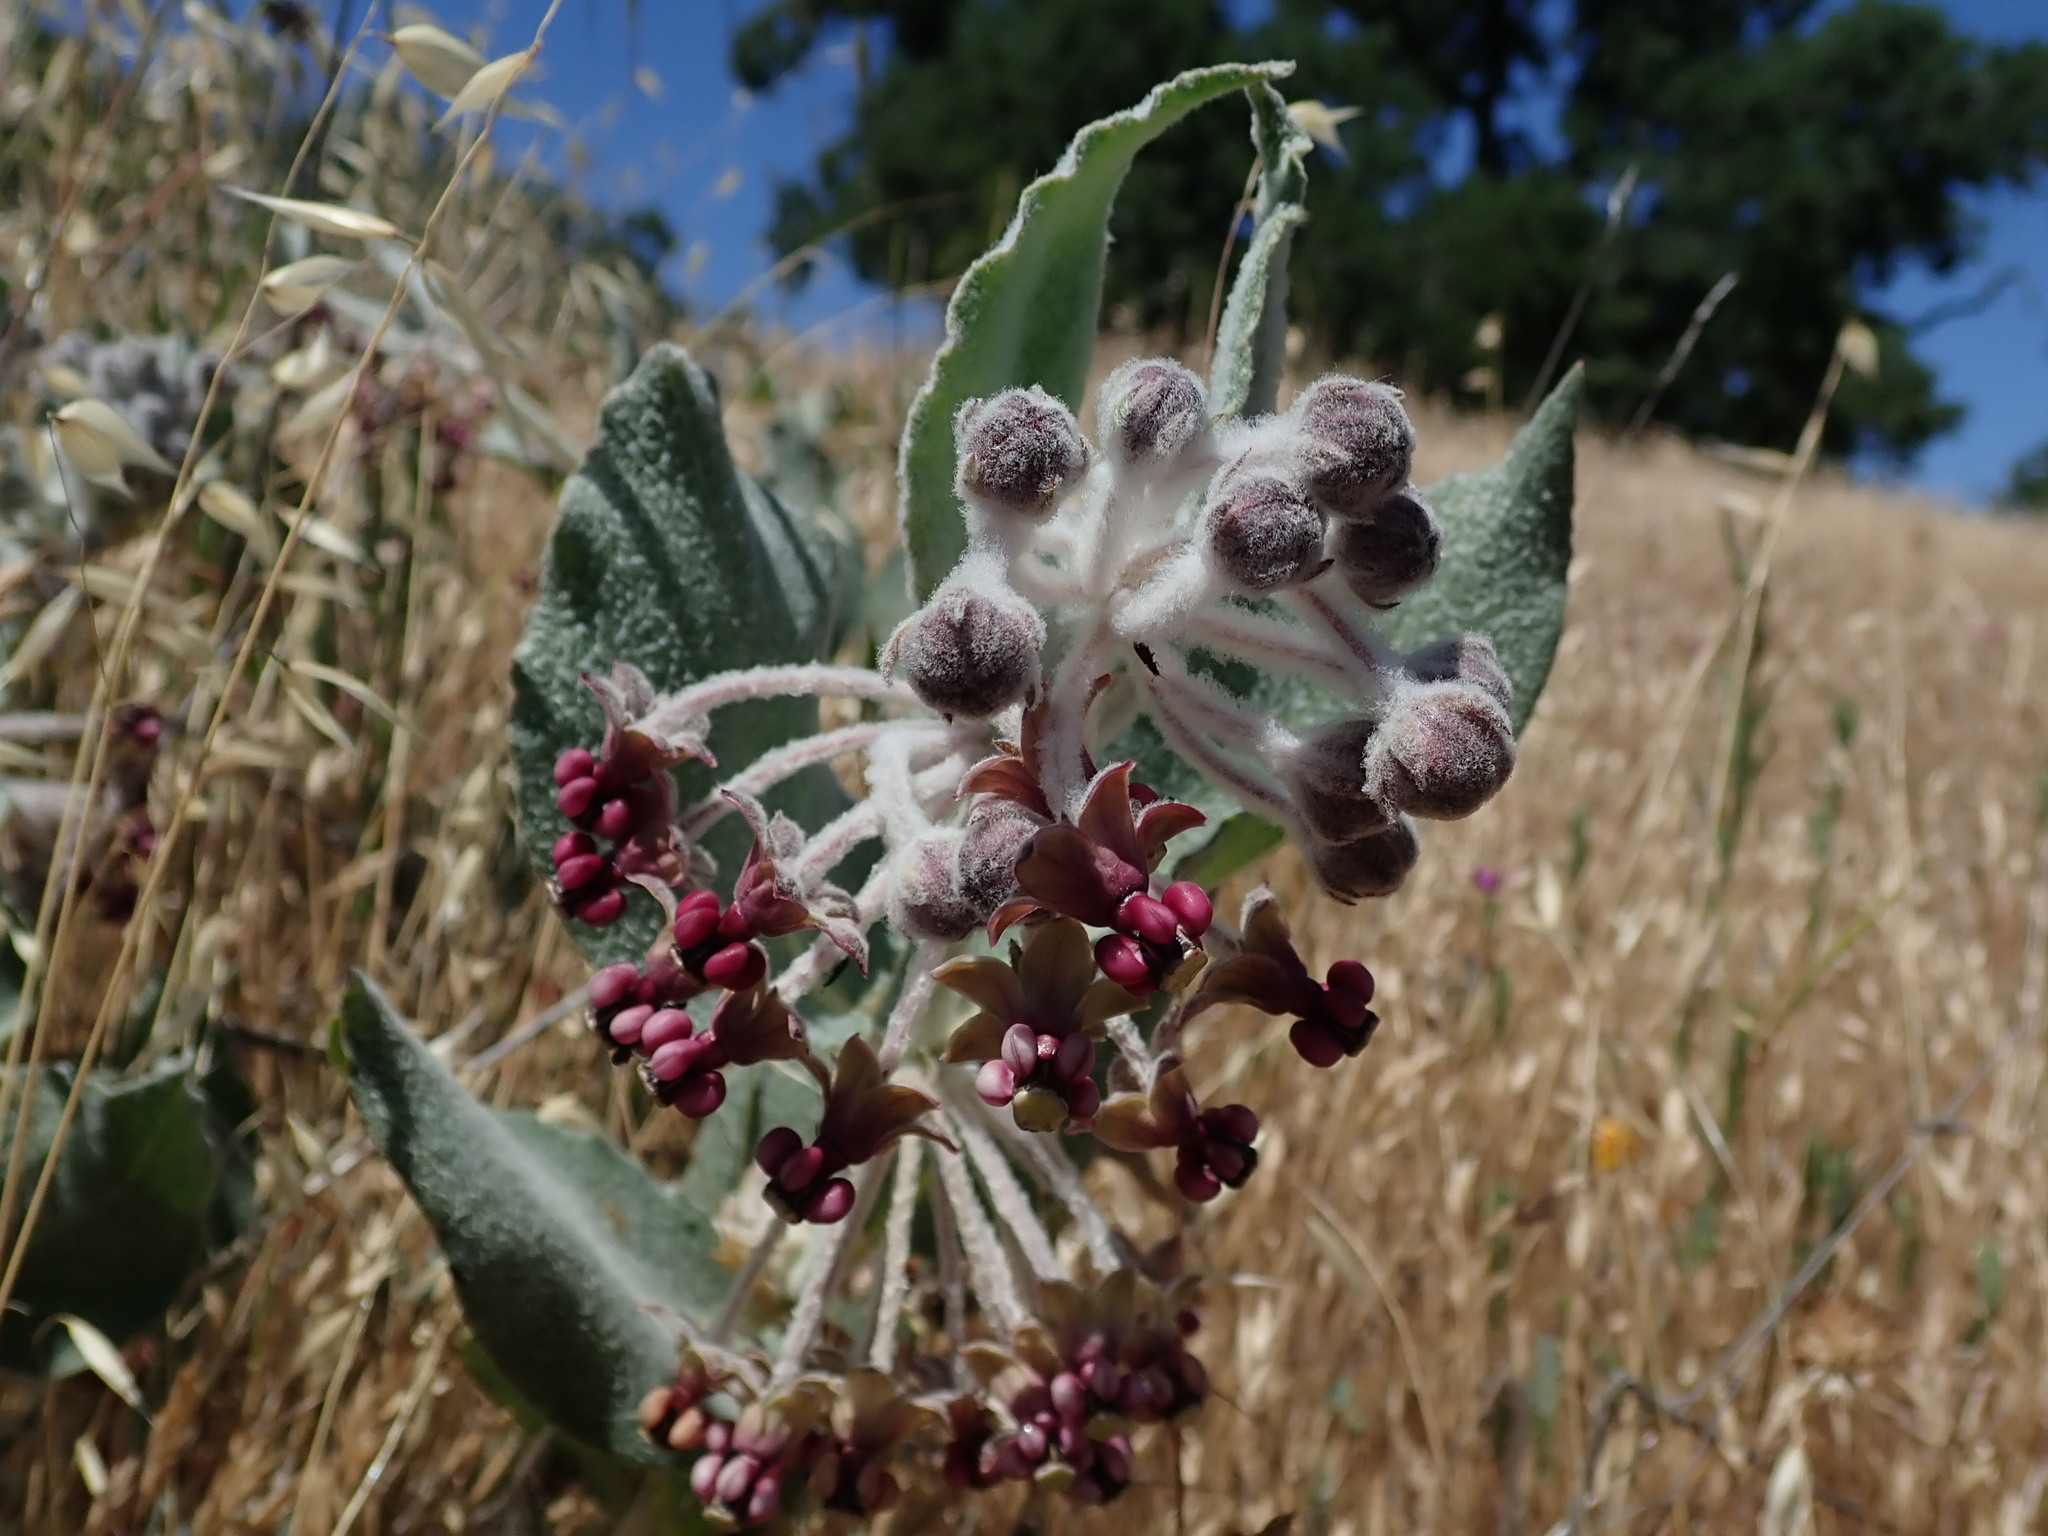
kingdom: Plantae
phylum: Tracheophyta
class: Magnoliopsida
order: Gentianales
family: Apocynaceae
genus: Asclepias
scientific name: Asclepias californica
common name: California milkweed
